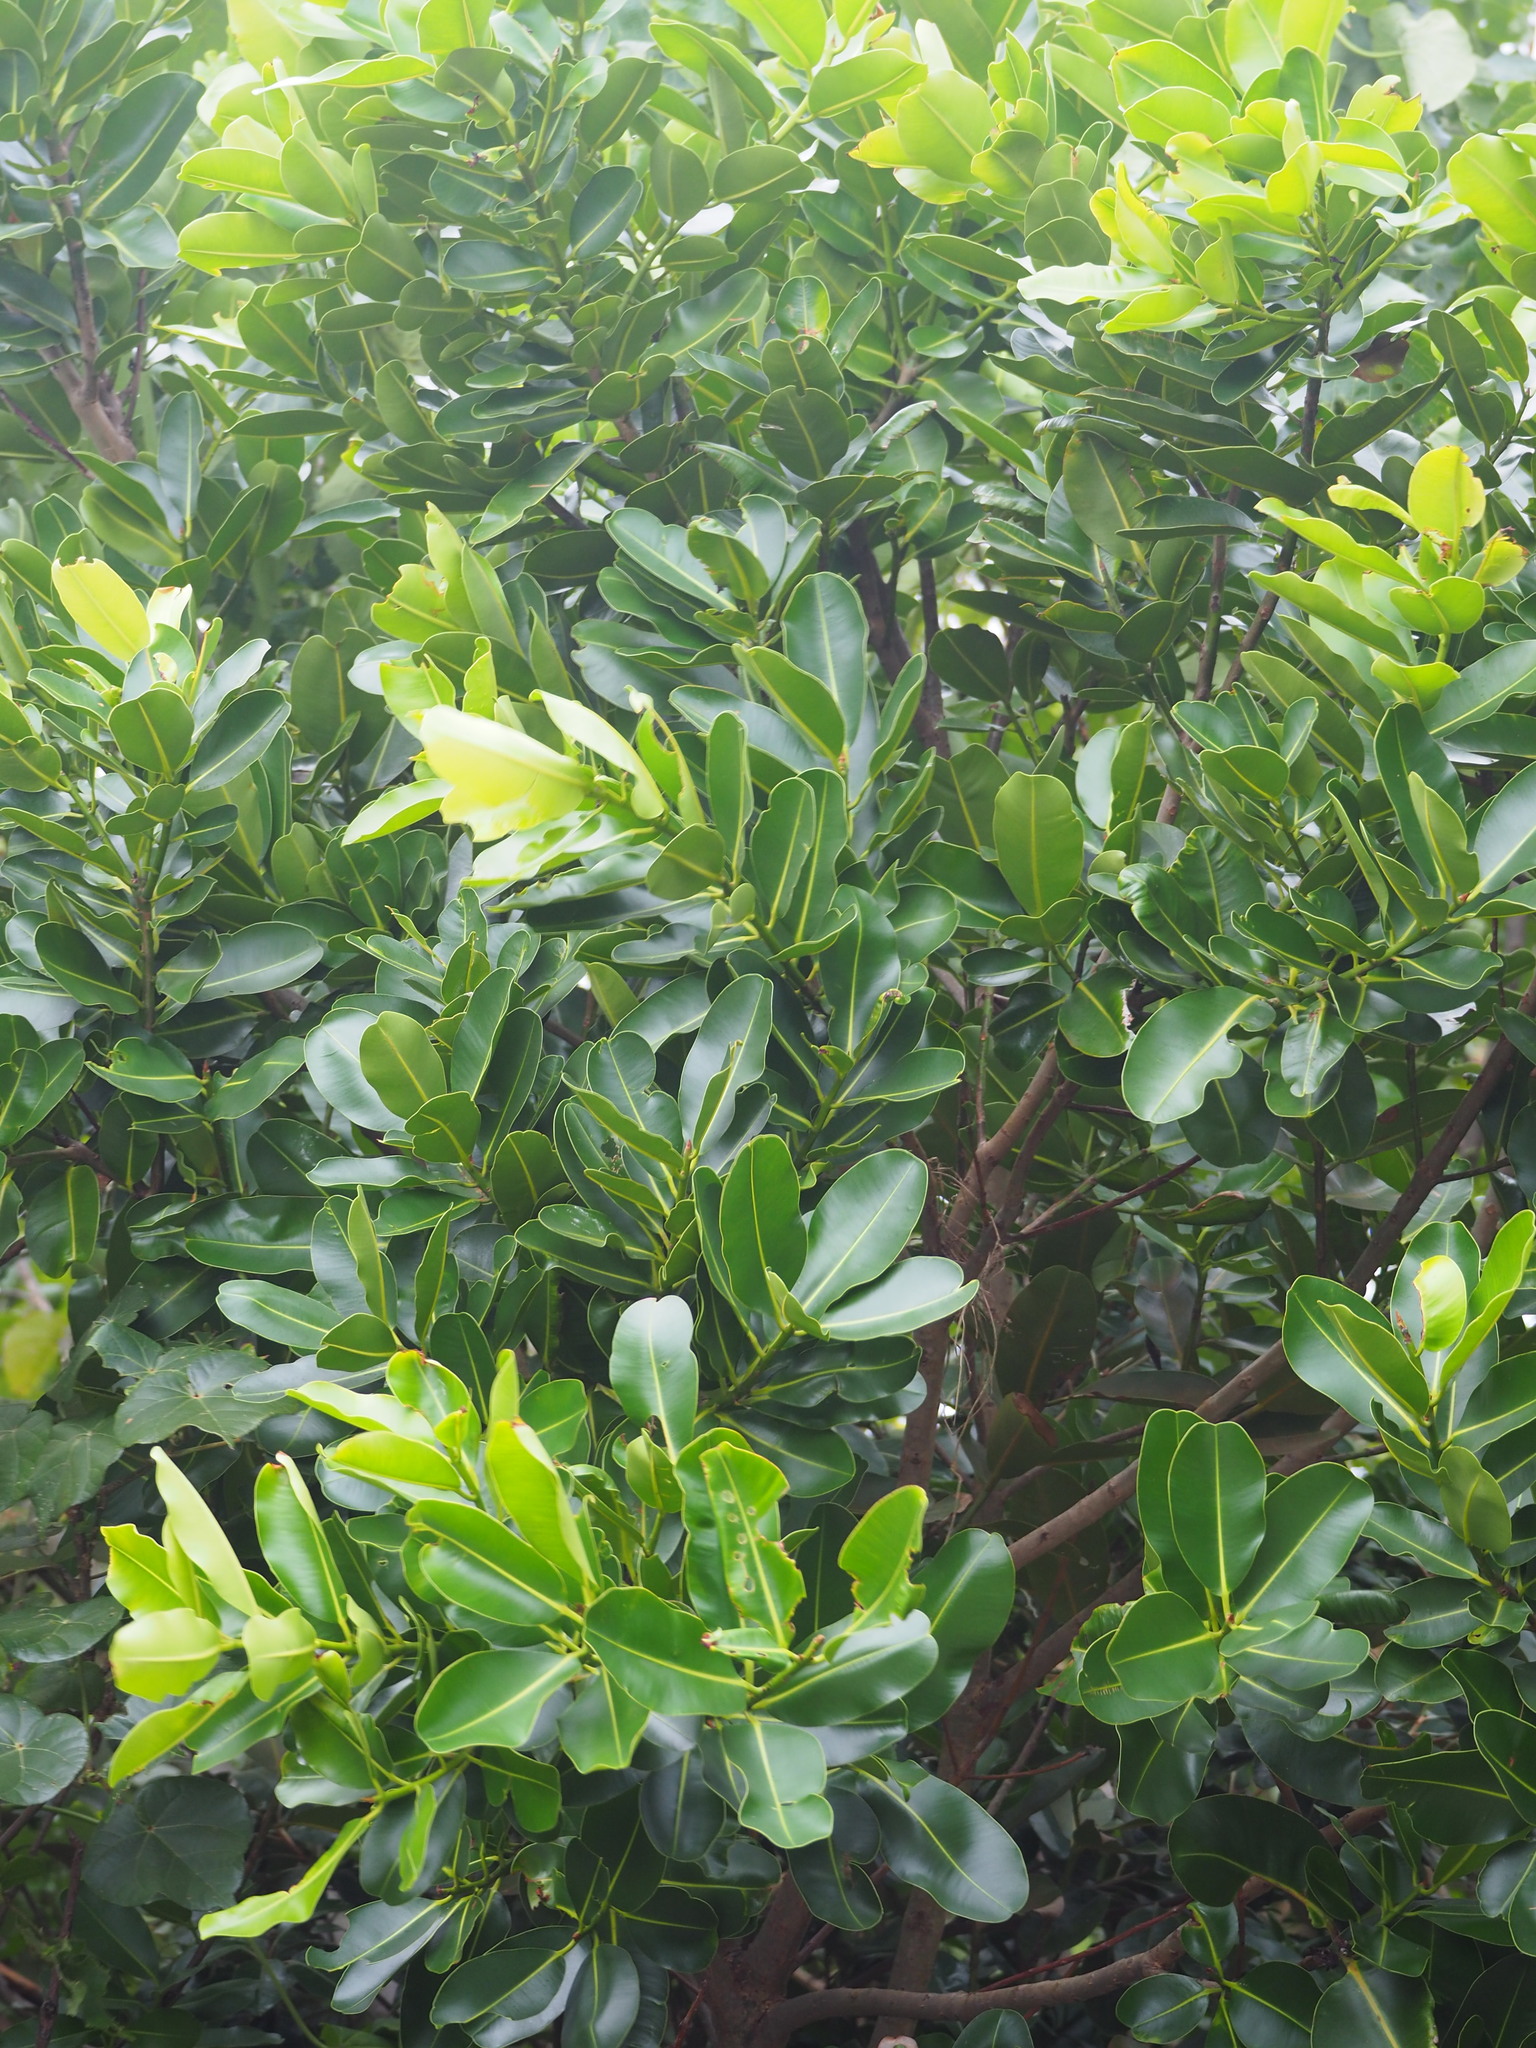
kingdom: Plantae
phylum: Tracheophyta
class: Magnoliopsida
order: Malpighiales
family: Calophyllaceae
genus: Calophyllum
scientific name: Calophyllum inophyllum
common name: Alexandrian laurel
